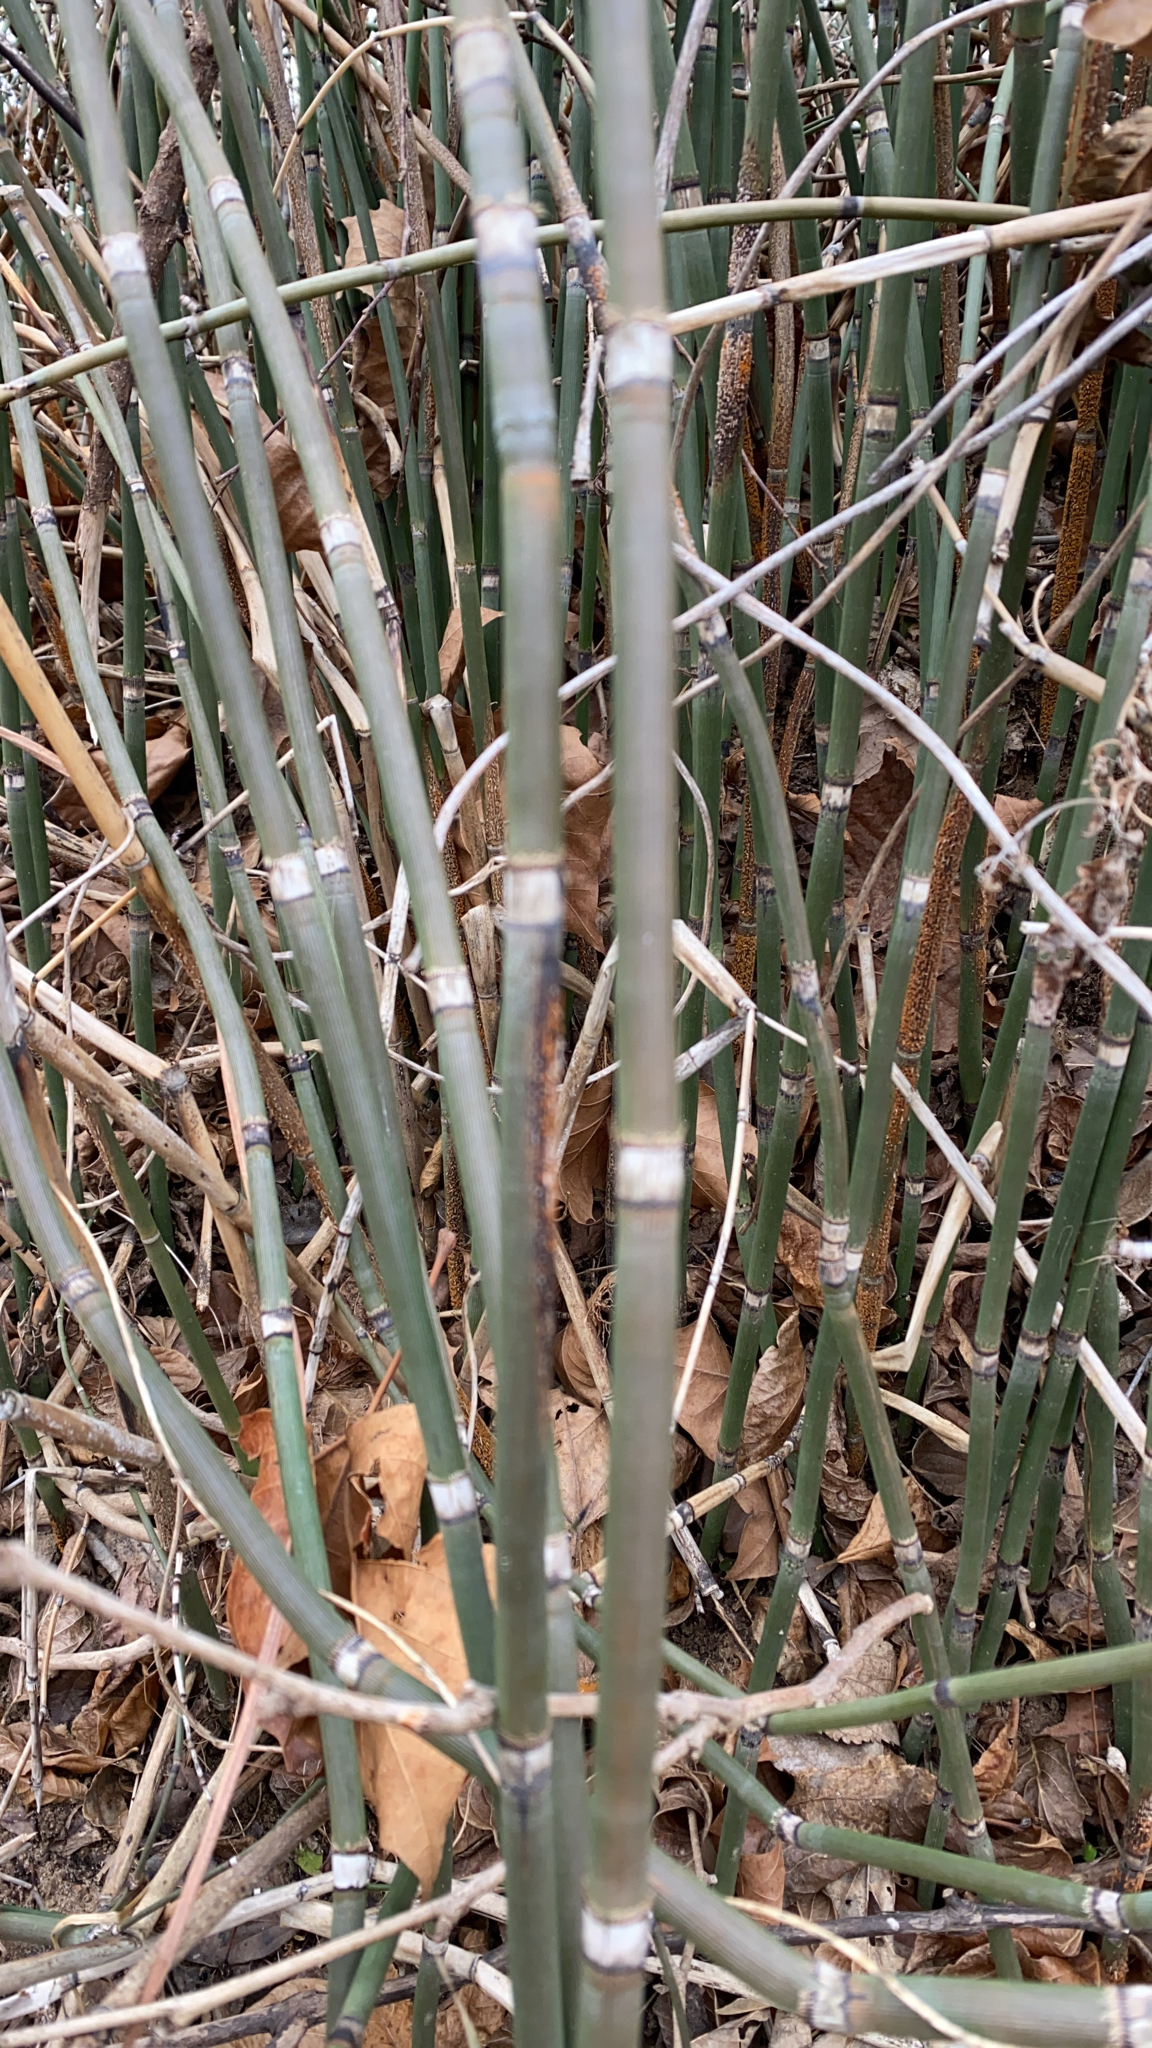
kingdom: Plantae
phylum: Tracheophyta
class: Polypodiopsida
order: Equisetales
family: Equisetaceae
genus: Equisetum
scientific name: Equisetum praealtum
